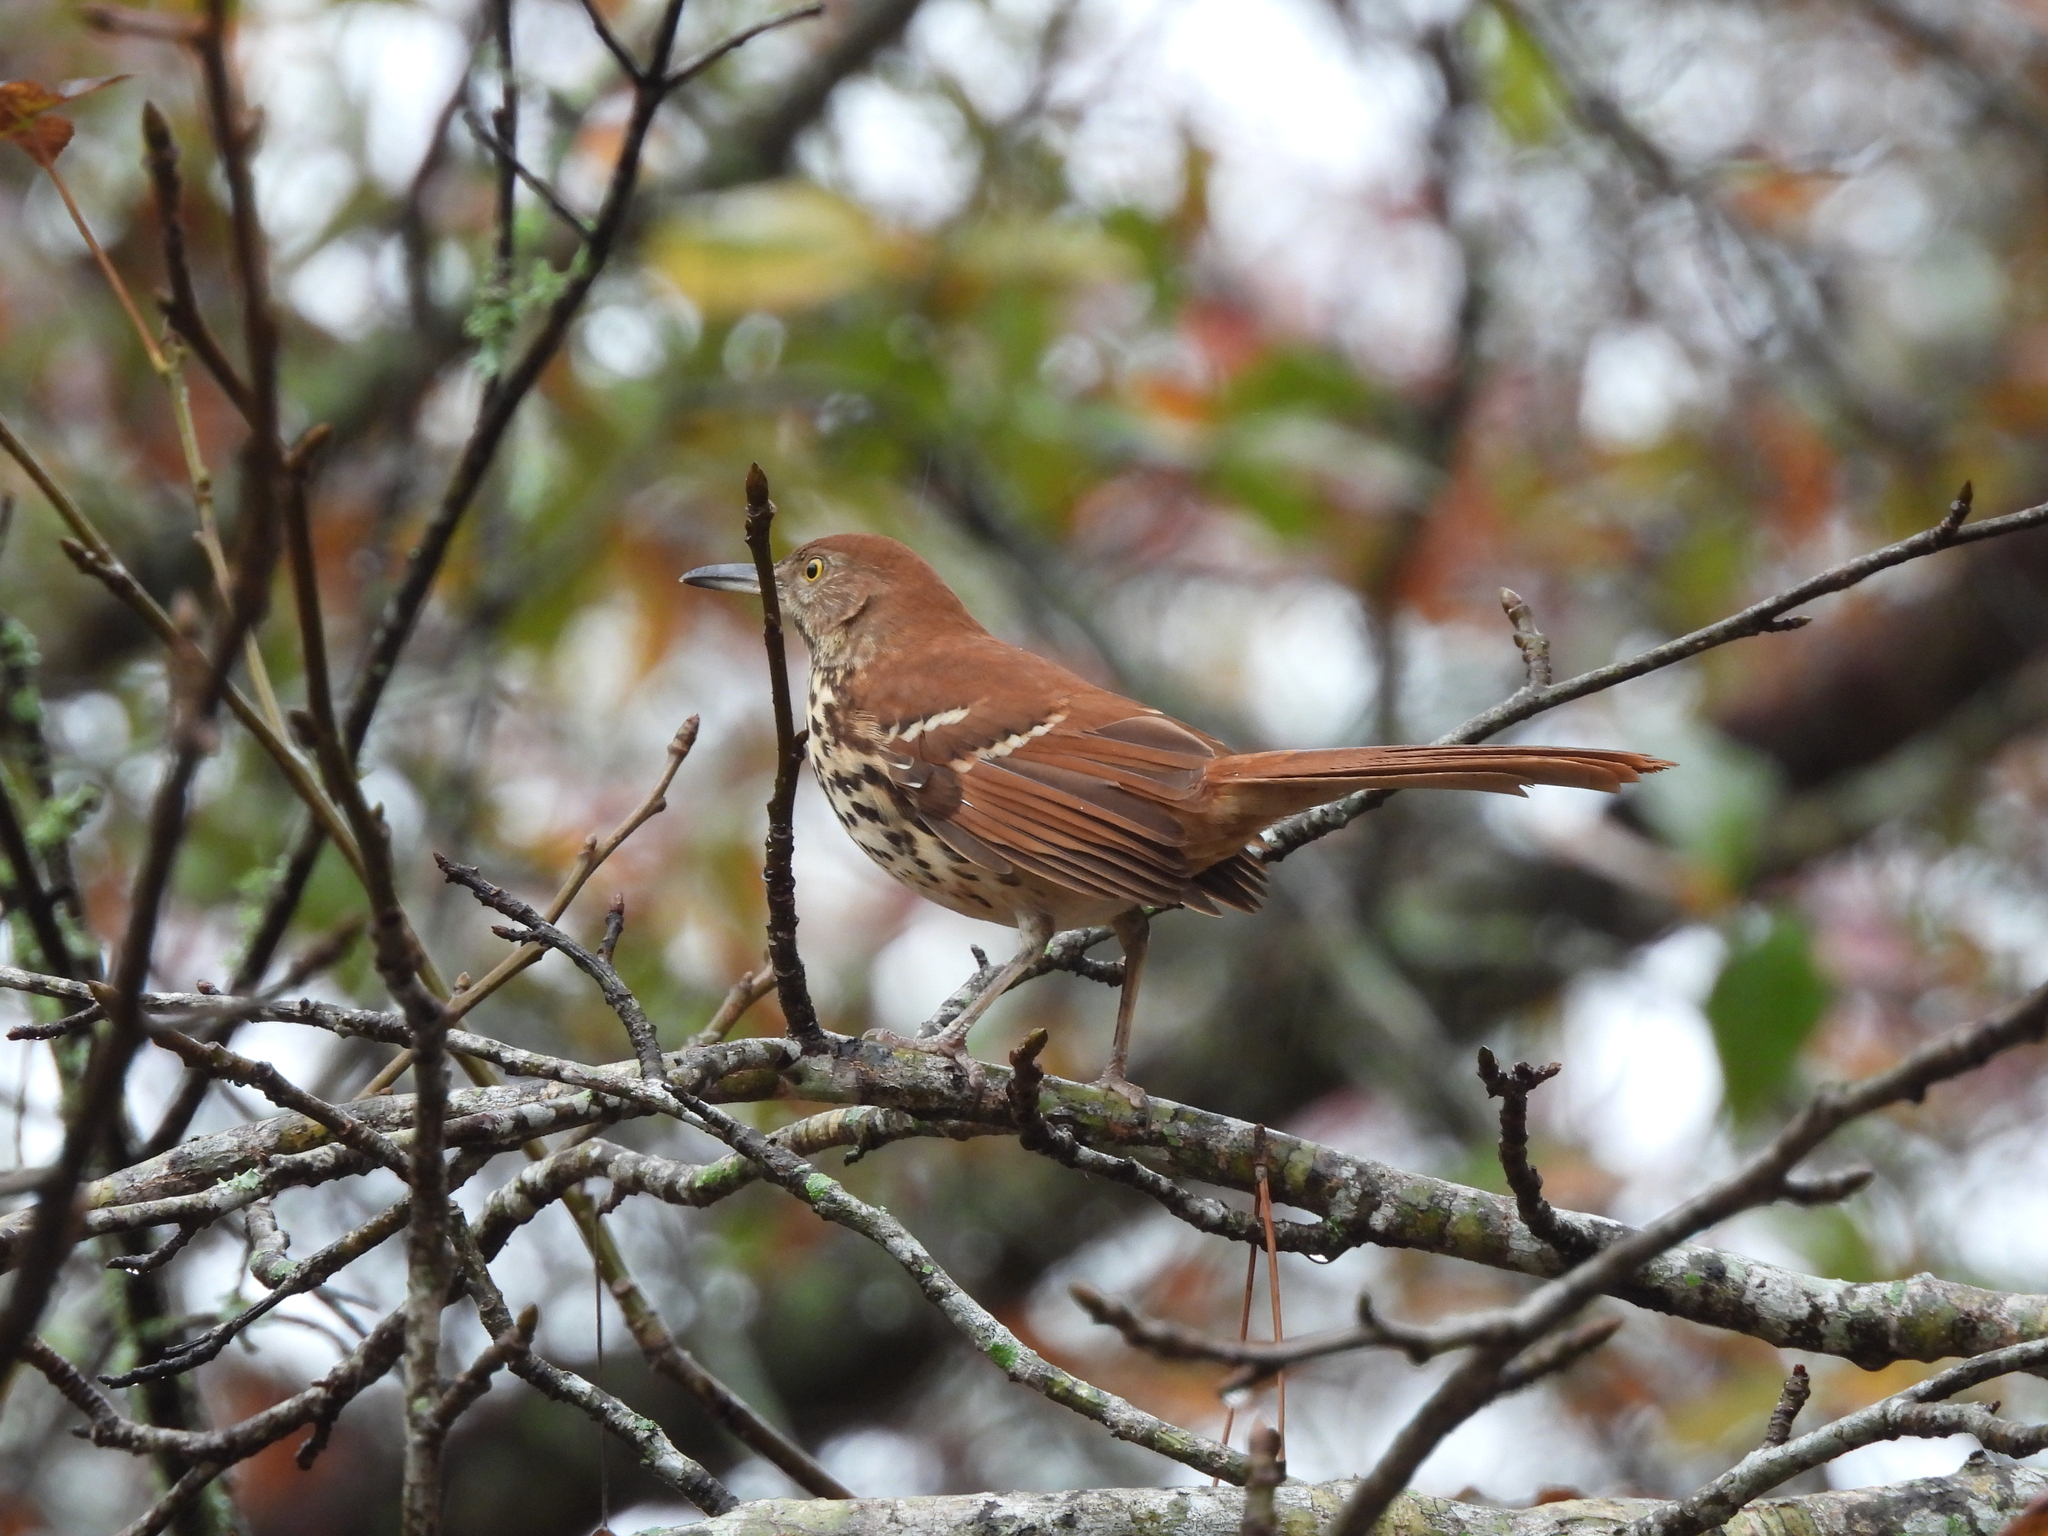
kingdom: Animalia
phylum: Chordata
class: Aves
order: Passeriformes
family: Mimidae
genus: Toxostoma
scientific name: Toxostoma rufum
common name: Brown thrasher
